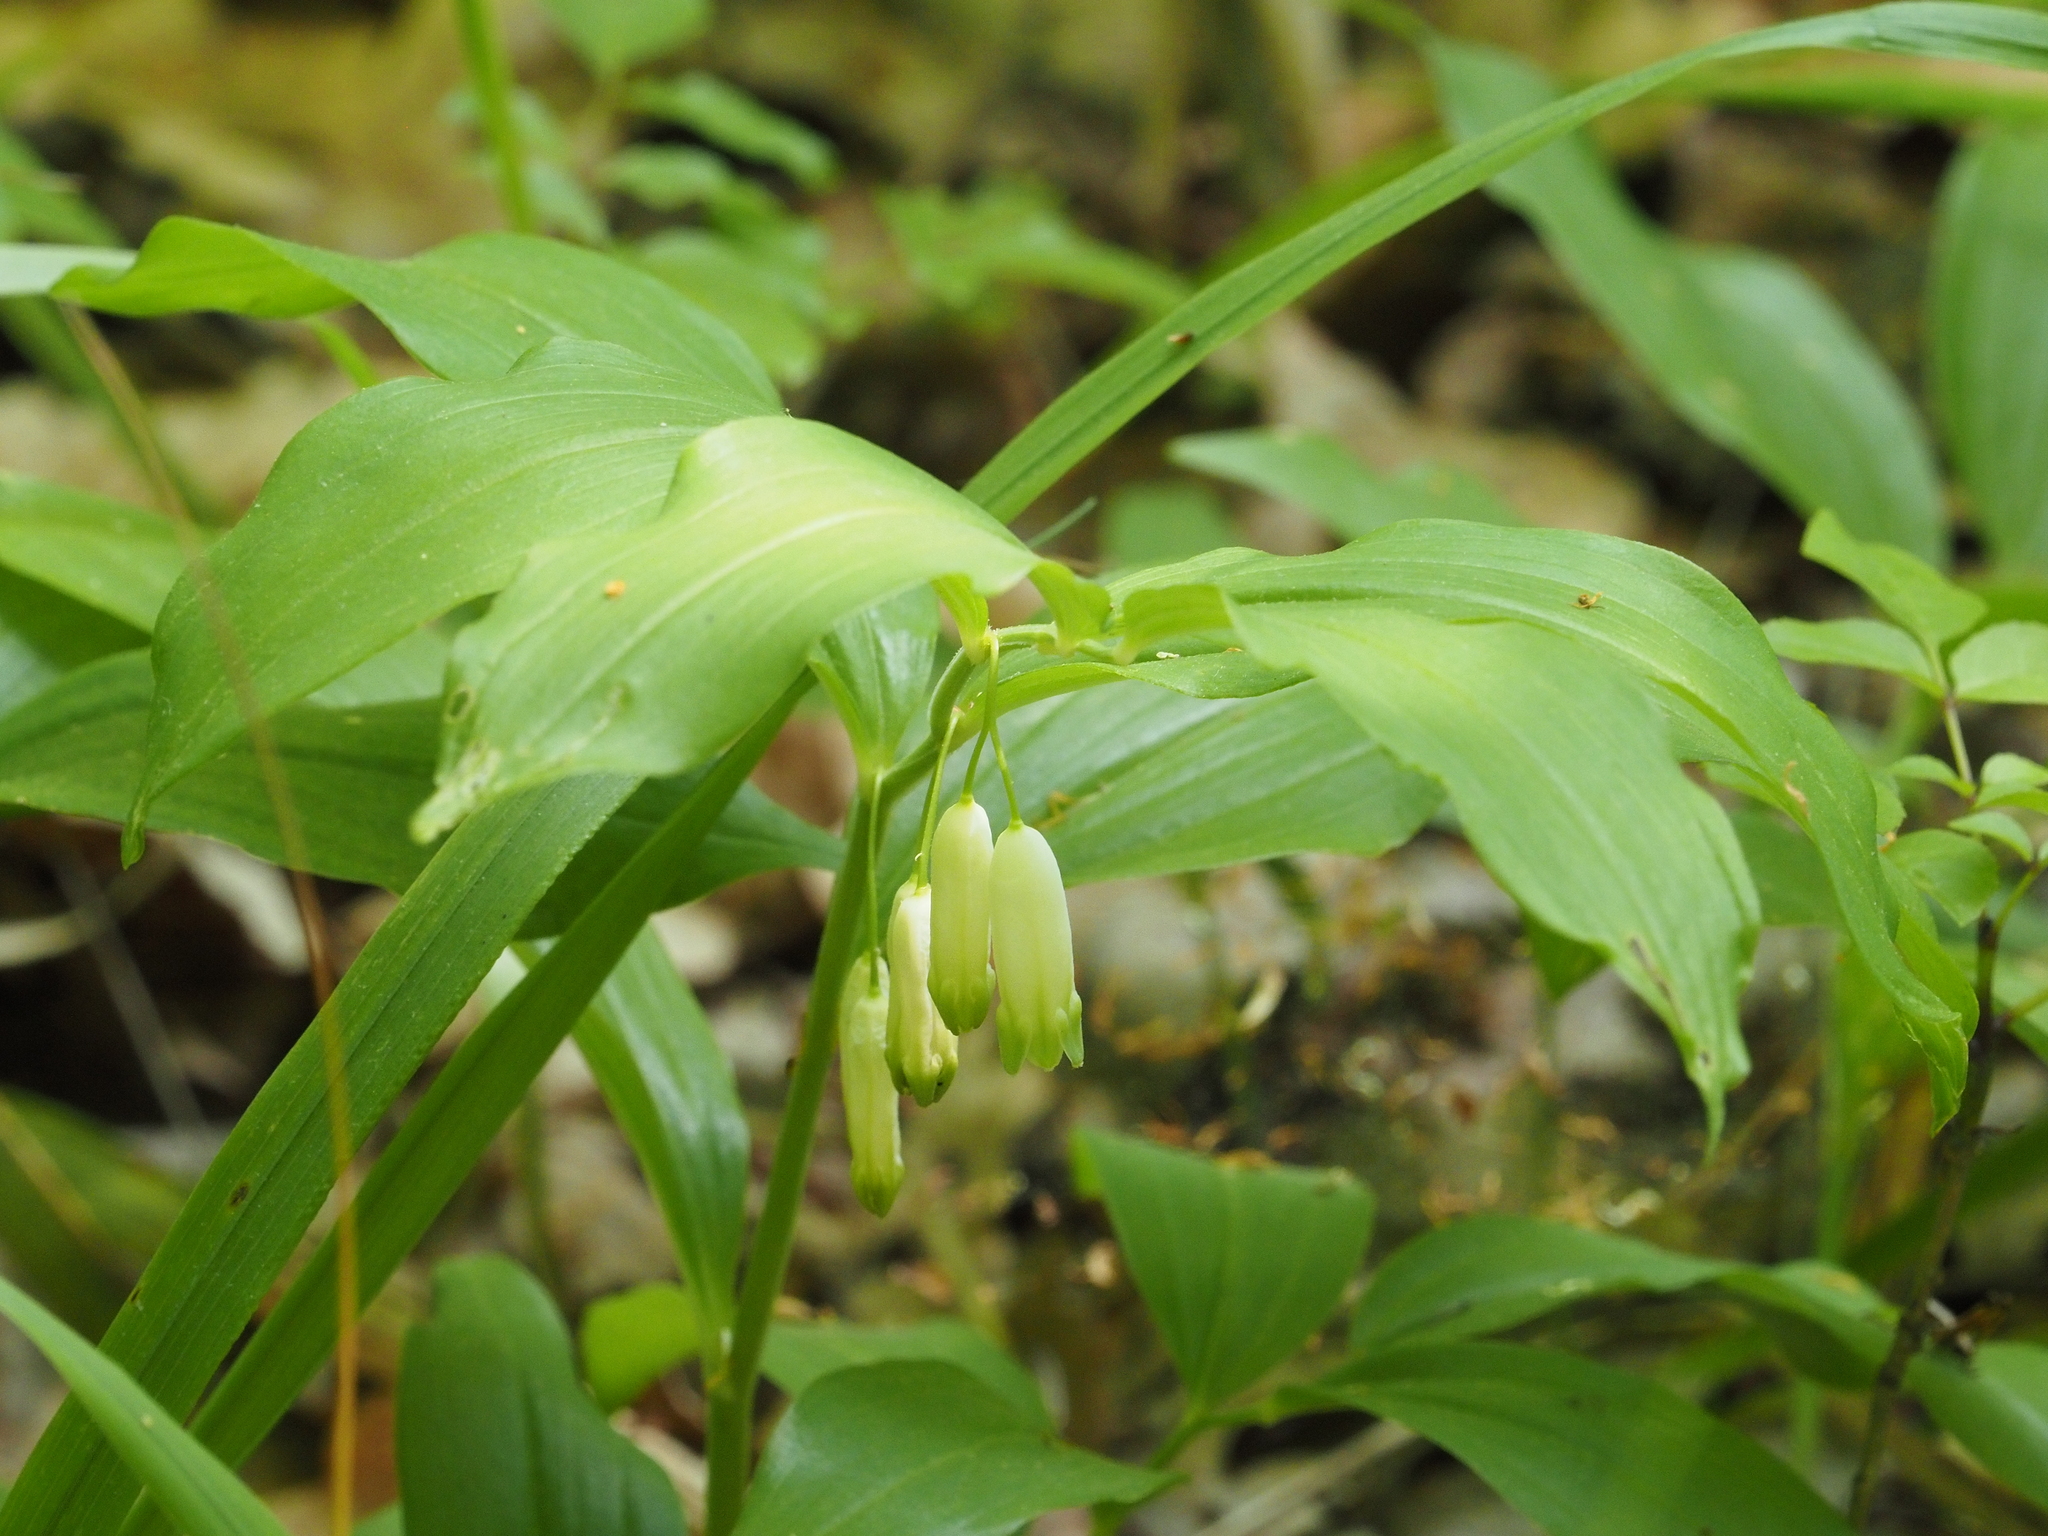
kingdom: Plantae
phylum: Tracheophyta
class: Liliopsida
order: Asparagales
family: Asparagaceae
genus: Polygonatum
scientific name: Polygonatum latifolium
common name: Broadleaf solomon's seal
